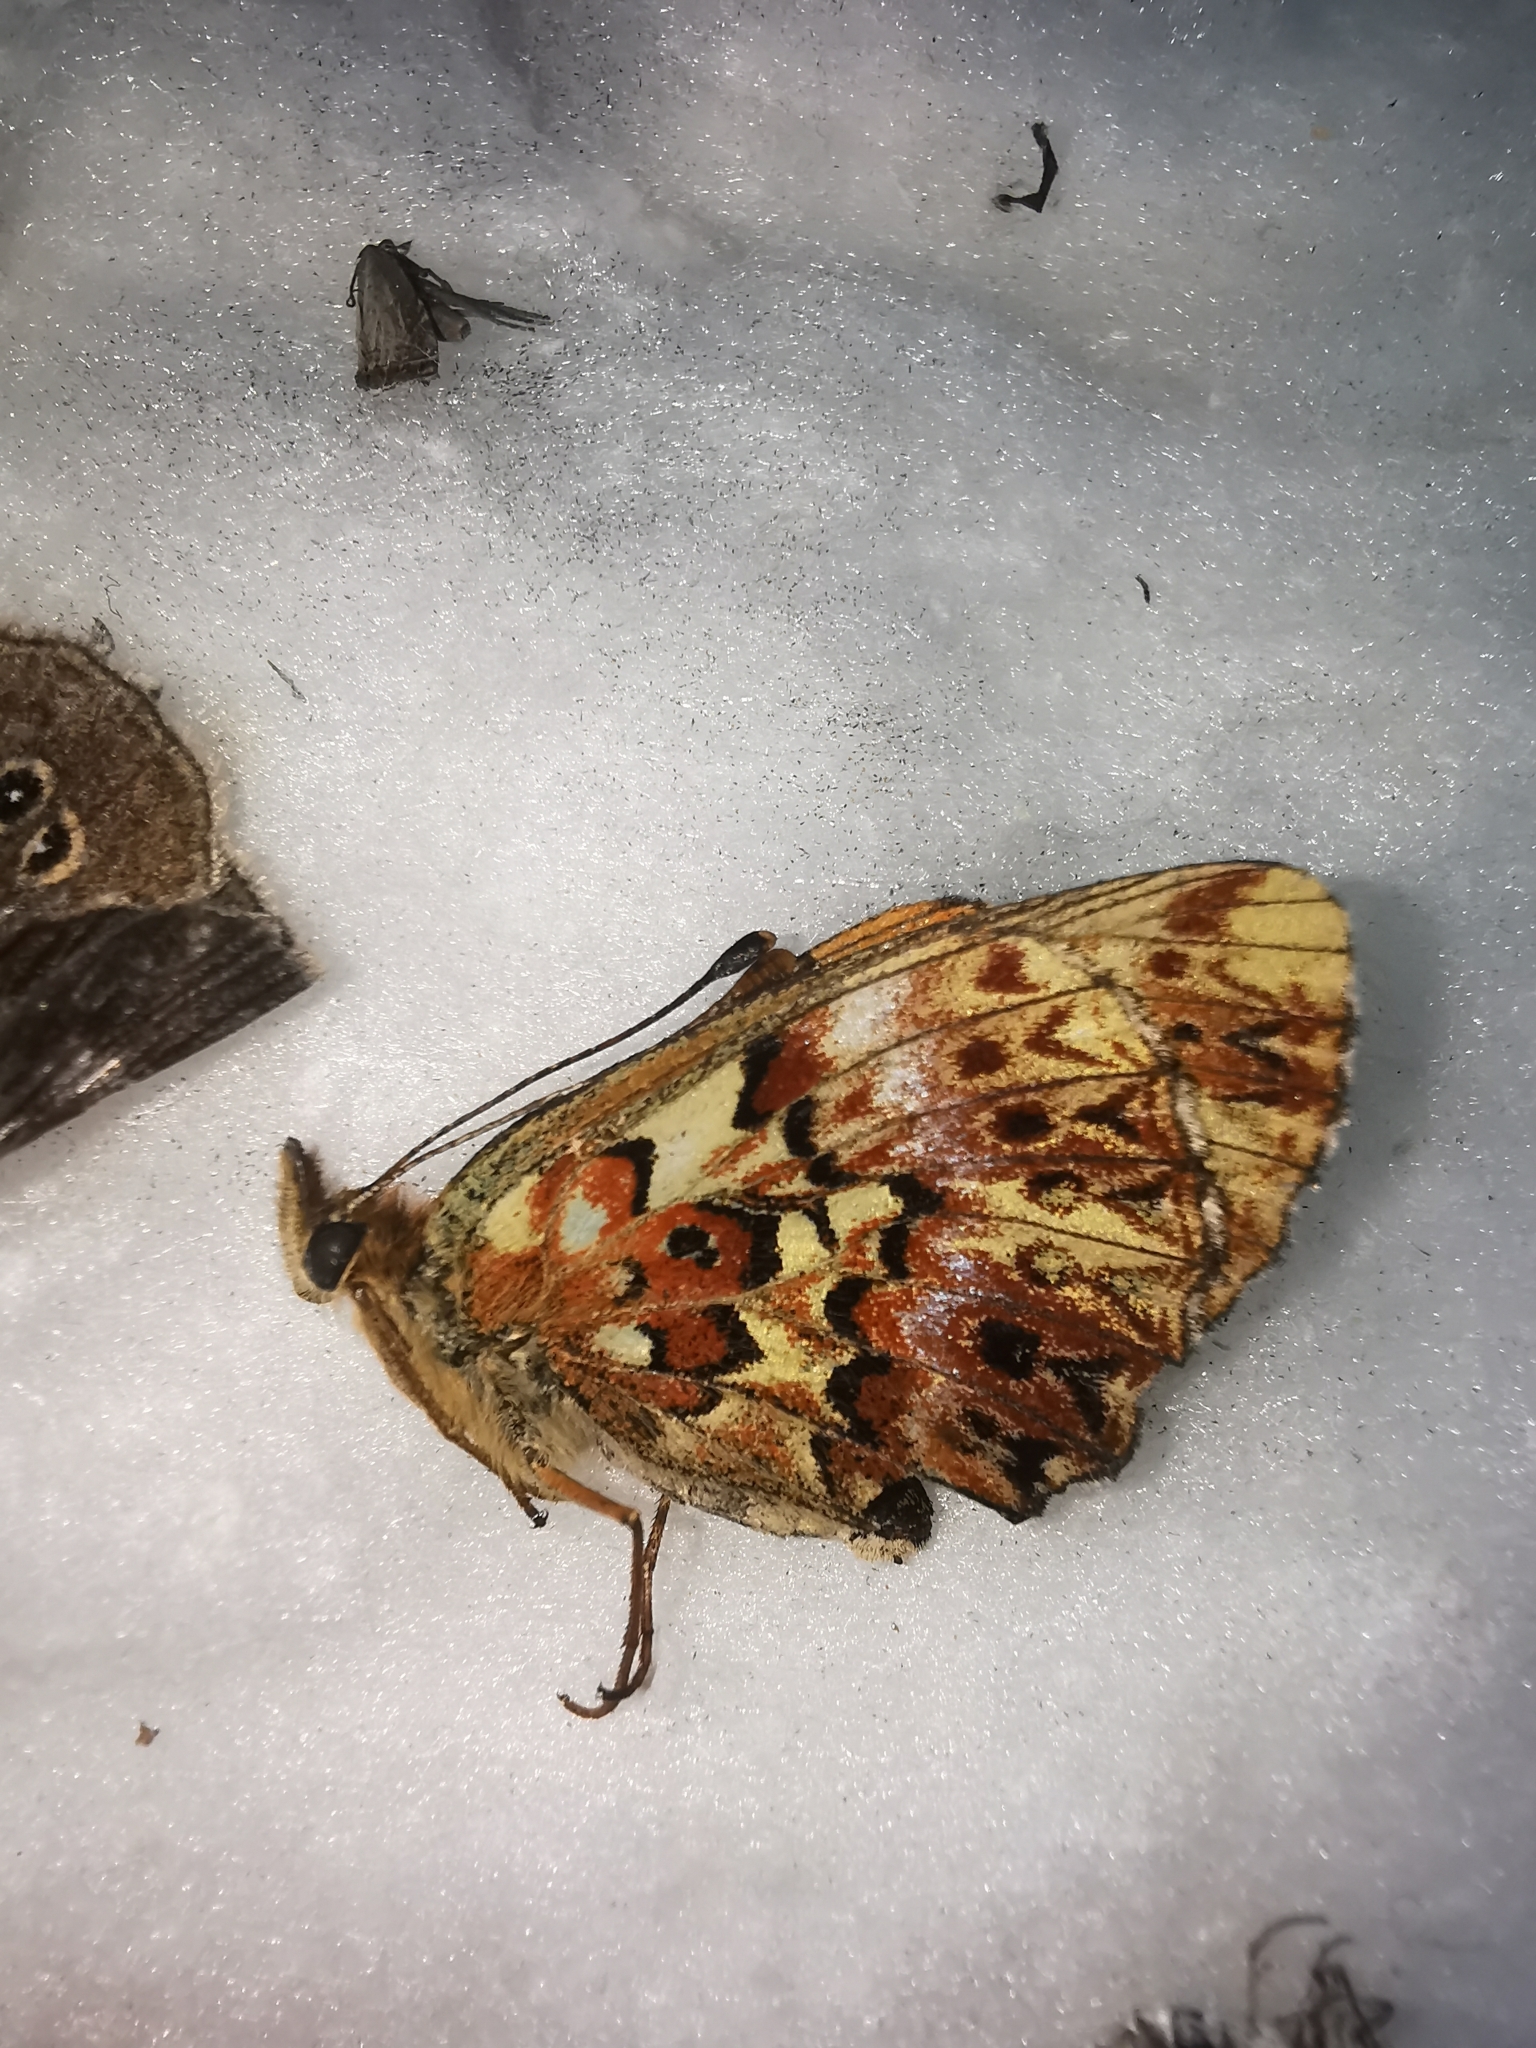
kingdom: Animalia
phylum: Arthropoda
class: Insecta
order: Lepidoptera
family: Nymphalidae
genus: Boloria
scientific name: Boloria titania
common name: Titania's fritillary
